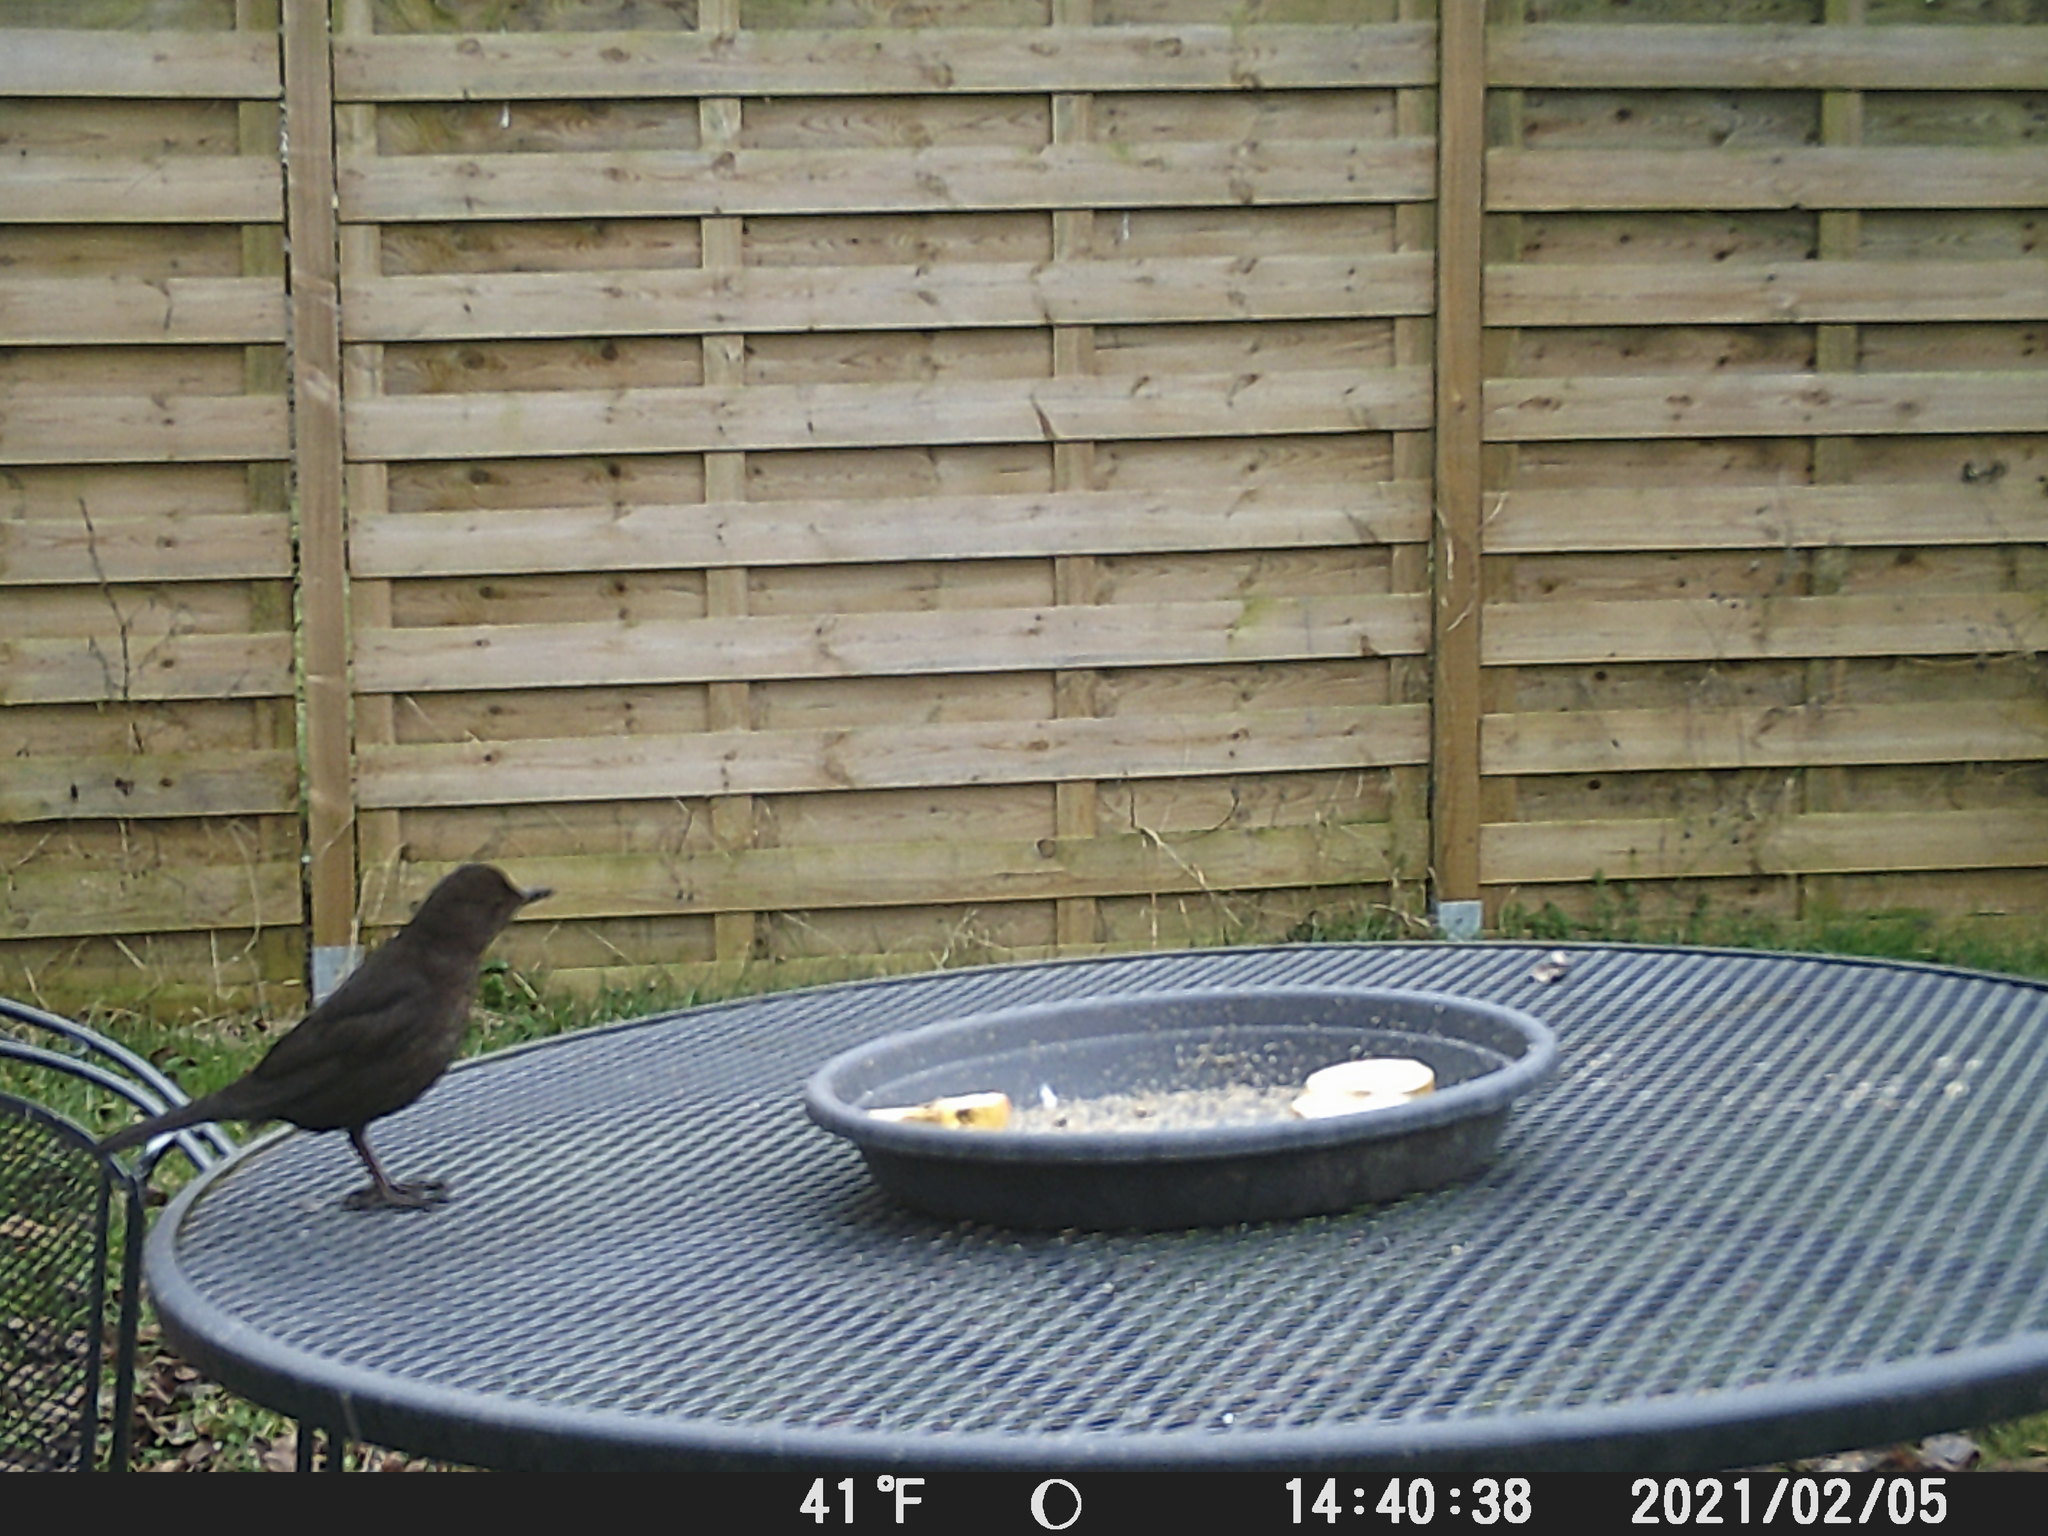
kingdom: Animalia
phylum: Chordata
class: Aves
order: Passeriformes
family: Turdidae
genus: Turdus
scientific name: Turdus merula
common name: Common blackbird
